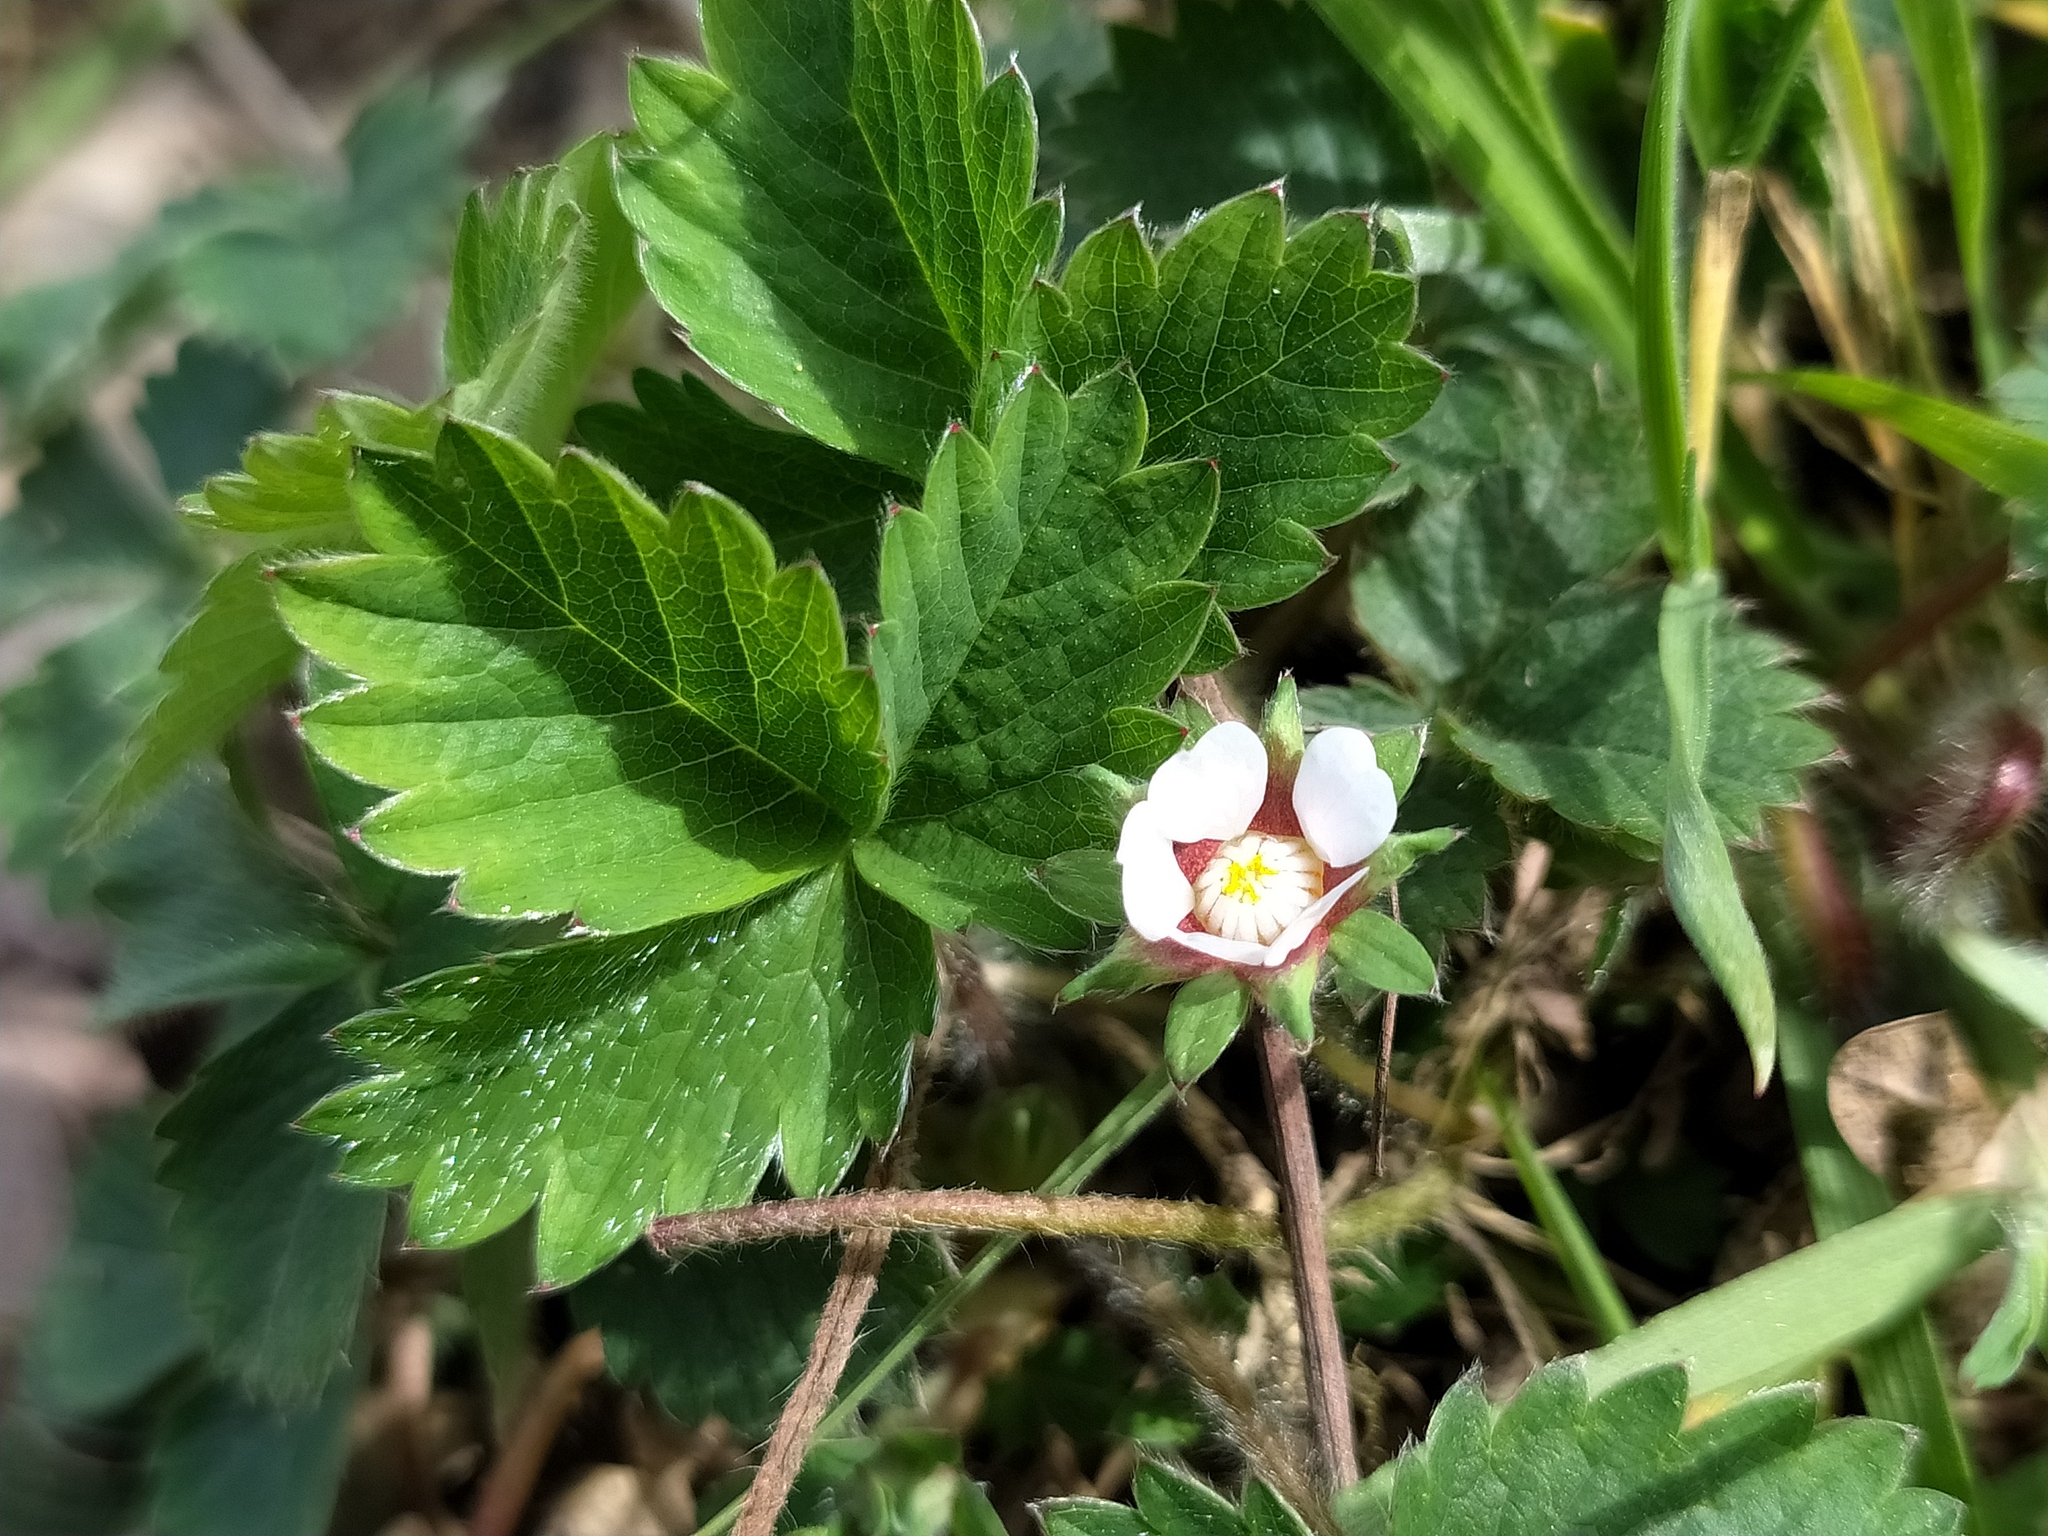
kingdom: Plantae
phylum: Tracheophyta
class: Magnoliopsida
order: Rosales
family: Rosaceae
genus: Potentilla
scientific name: Potentilla micrantha
